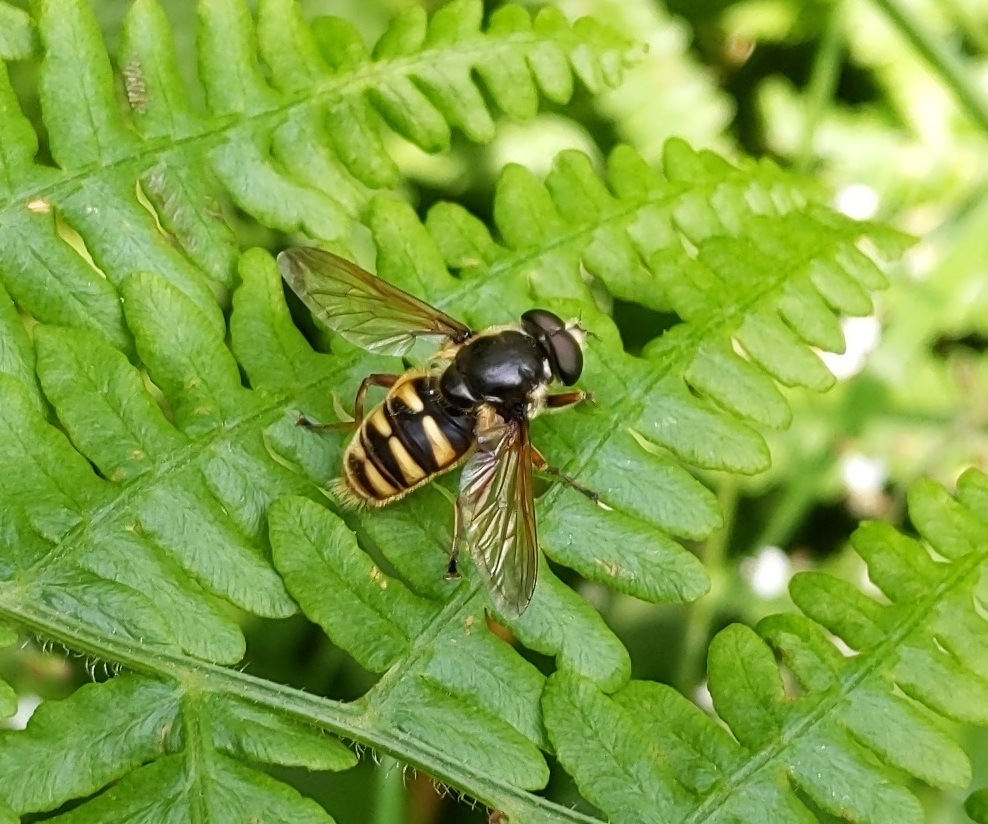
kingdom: Animalia
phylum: Arthropoda
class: Insecta
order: Diptera
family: Syrphidae
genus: Sericomyia
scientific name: Sericomyia silentis
